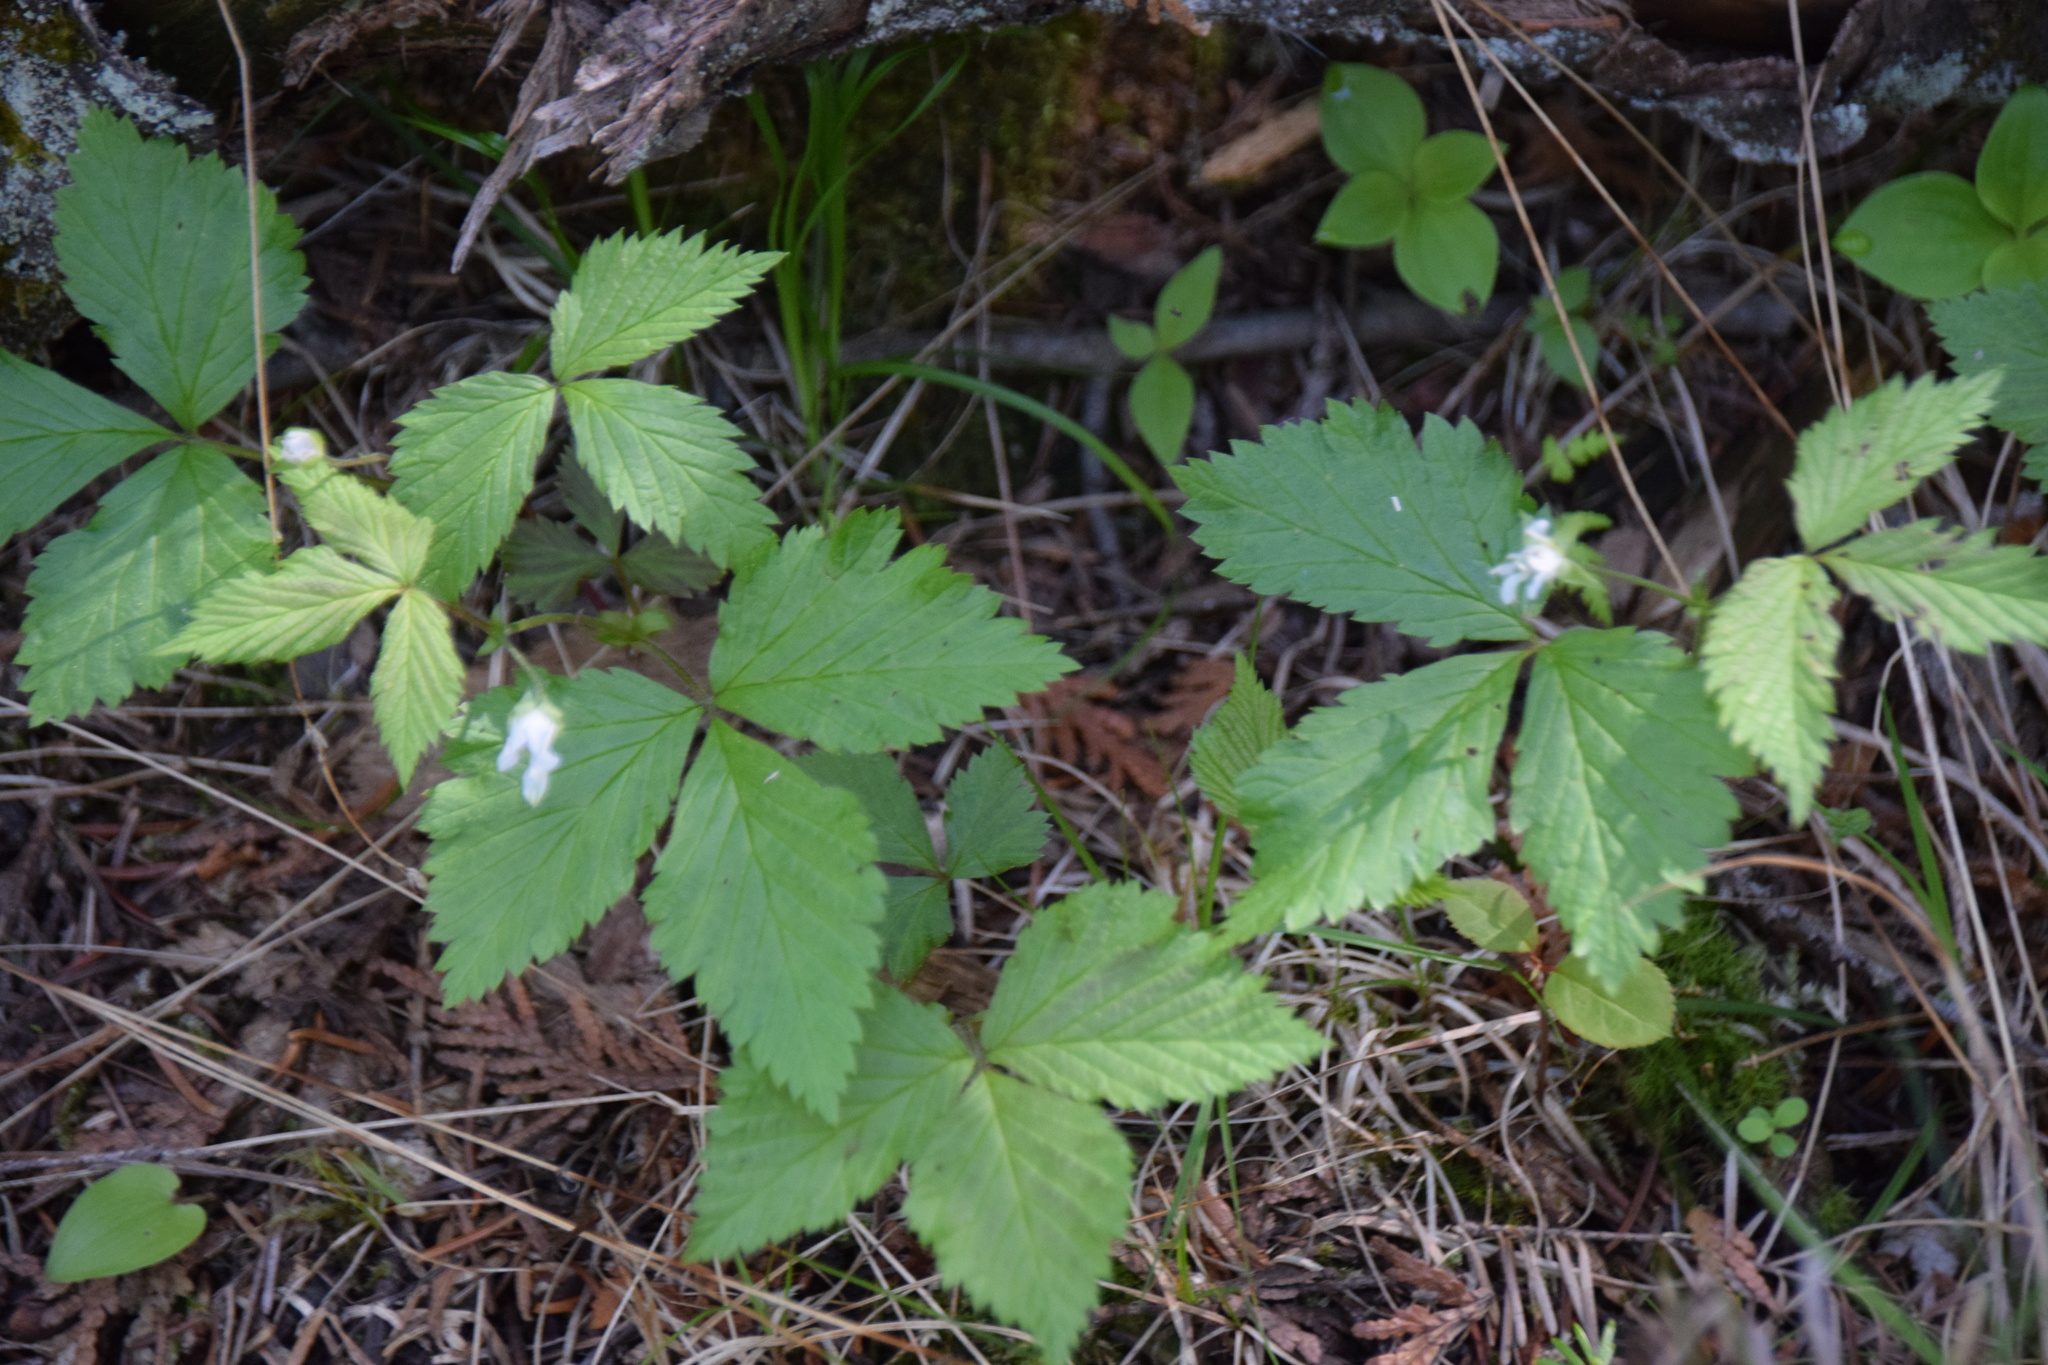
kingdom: Plantae
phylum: Tracheophyta
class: Magnoliopsida
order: Rosales
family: Rosaceae
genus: Rubus
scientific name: Rubus pubescens
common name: Dwarf raspberry
